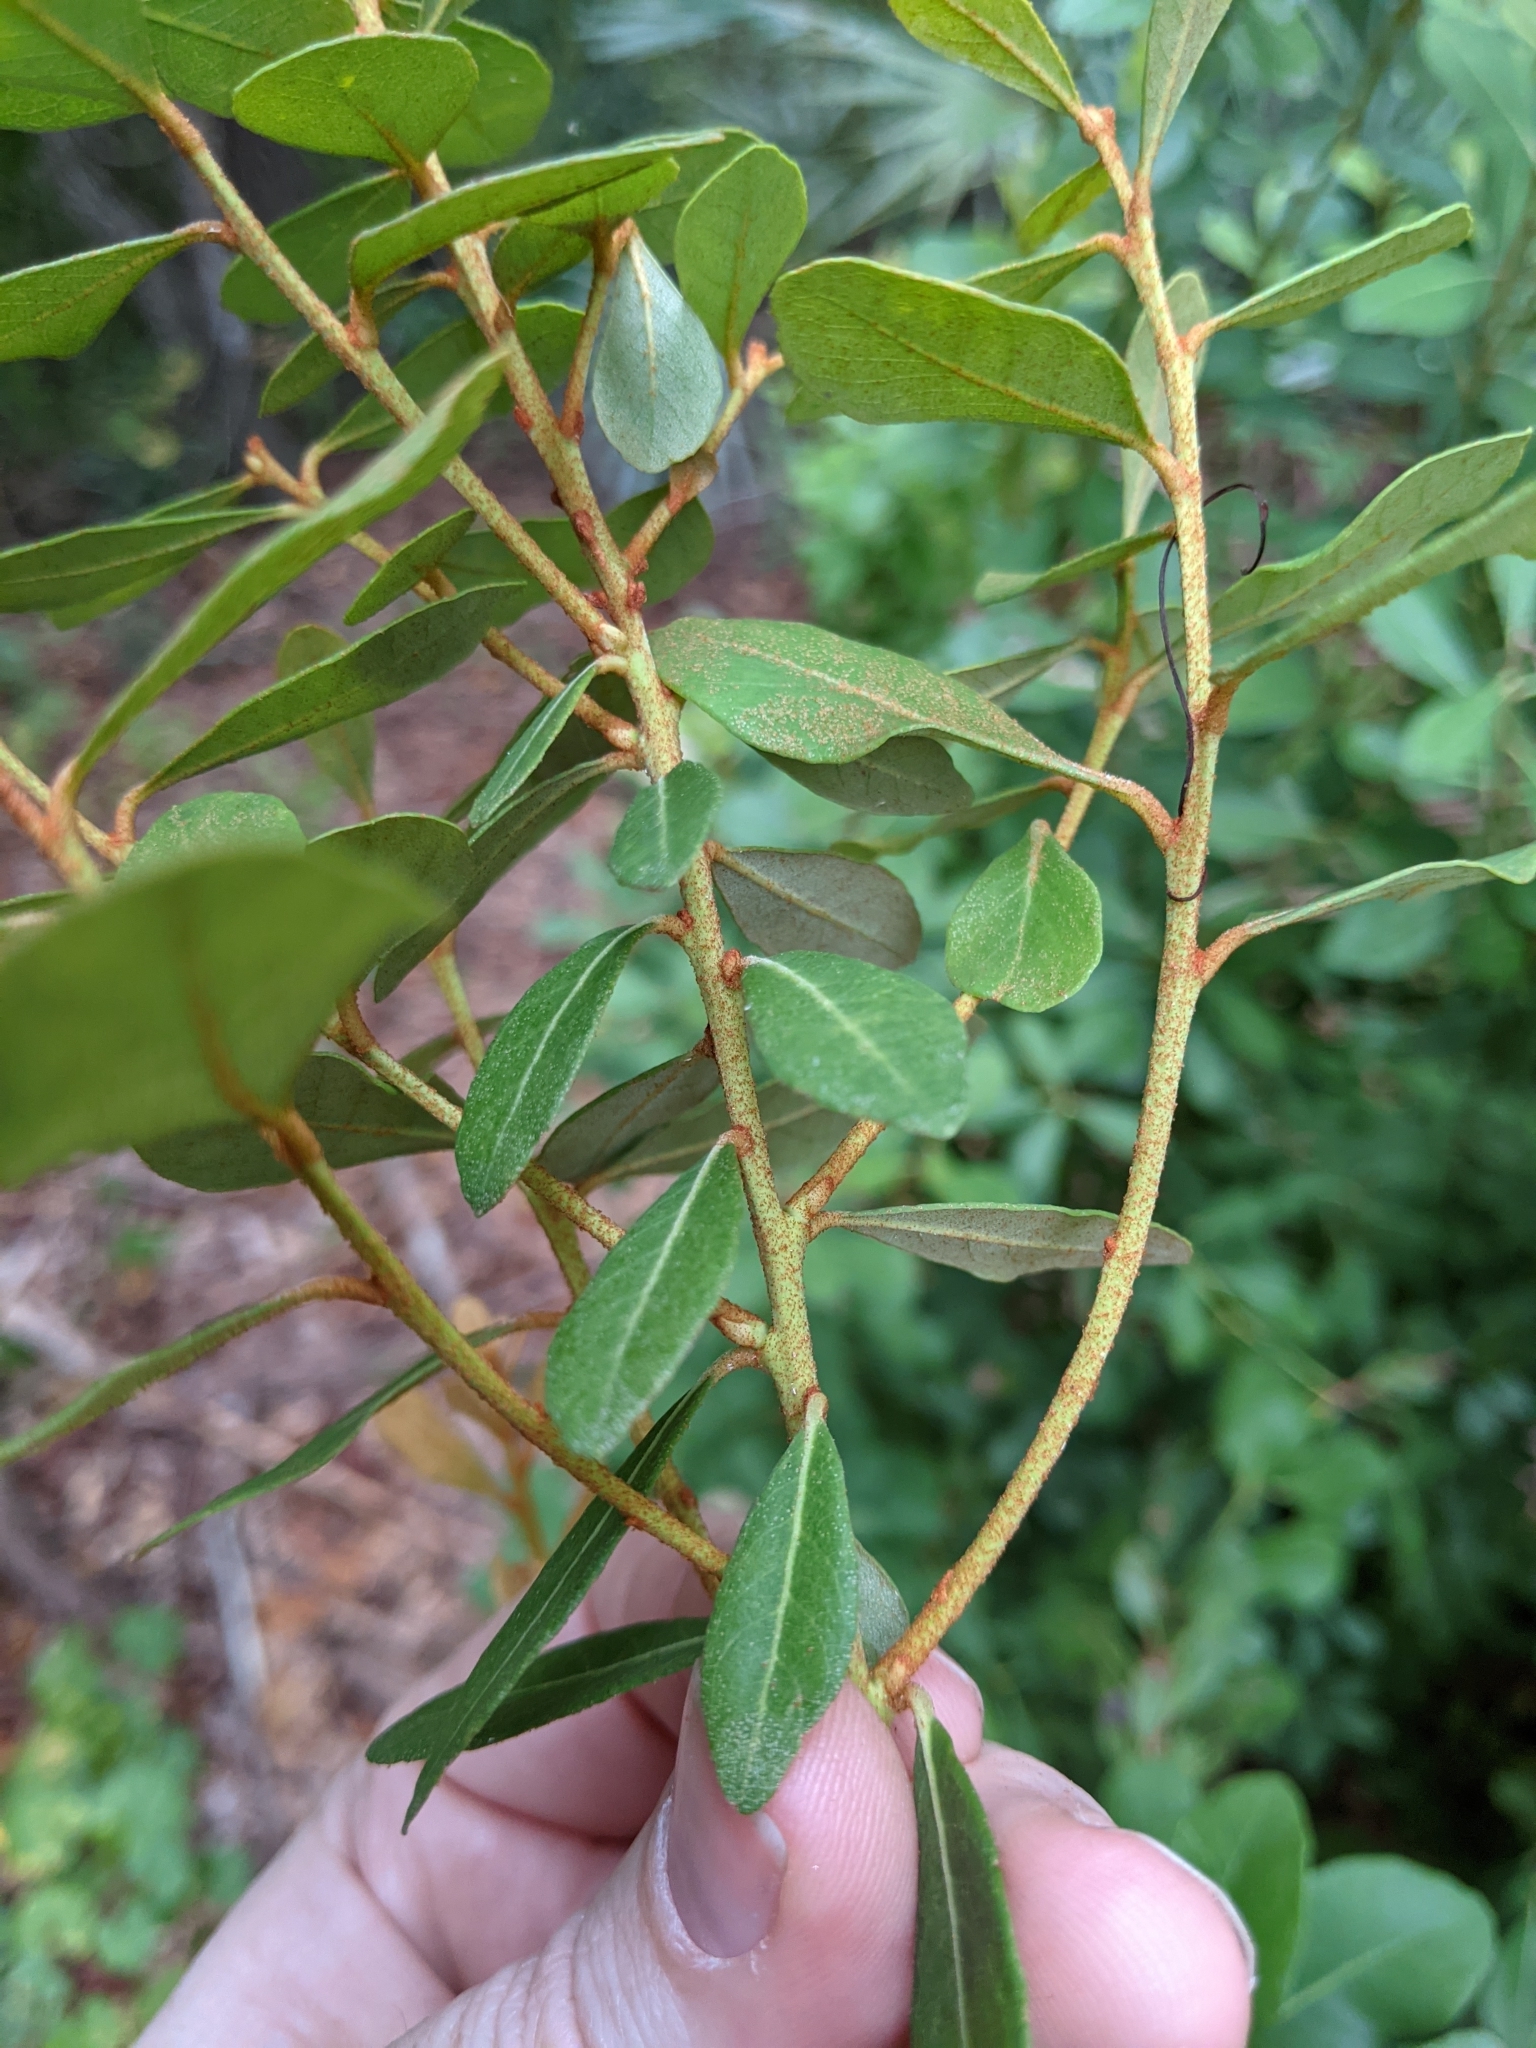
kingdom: Plantae
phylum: Tracheophyta
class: Magnoliopsida
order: Ericales
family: Ericaceae
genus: Lyonia
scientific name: Lyonia fruticosa
